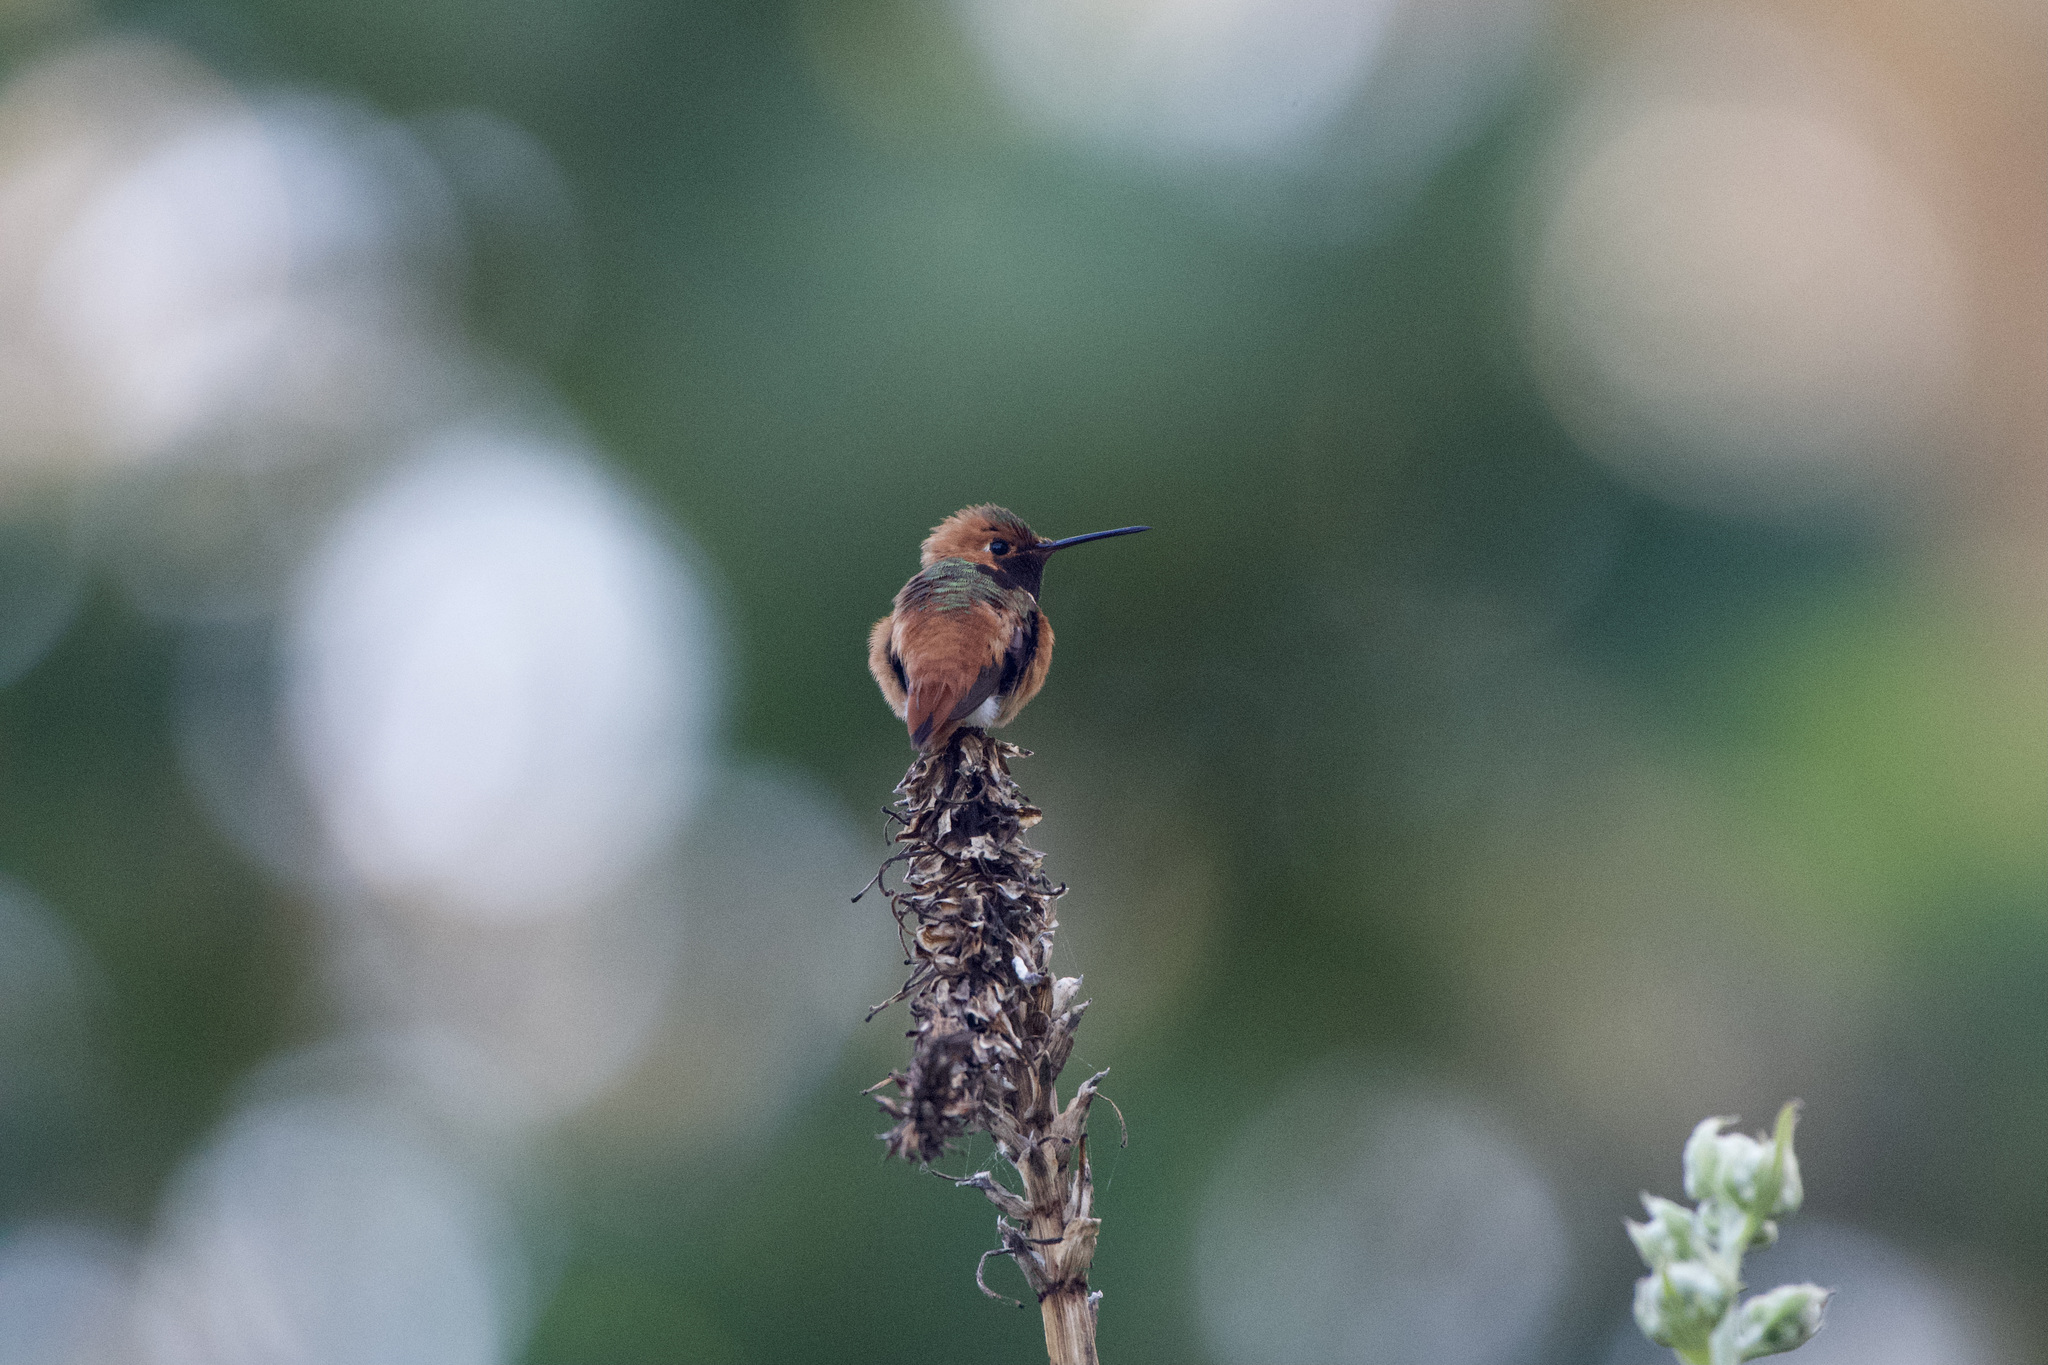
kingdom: Animalia
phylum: Chordata
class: Aves
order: Apodiformes
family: Trochilidae
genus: Selasphorus
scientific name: Selasphorus sasin
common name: Allen's hummingbird
